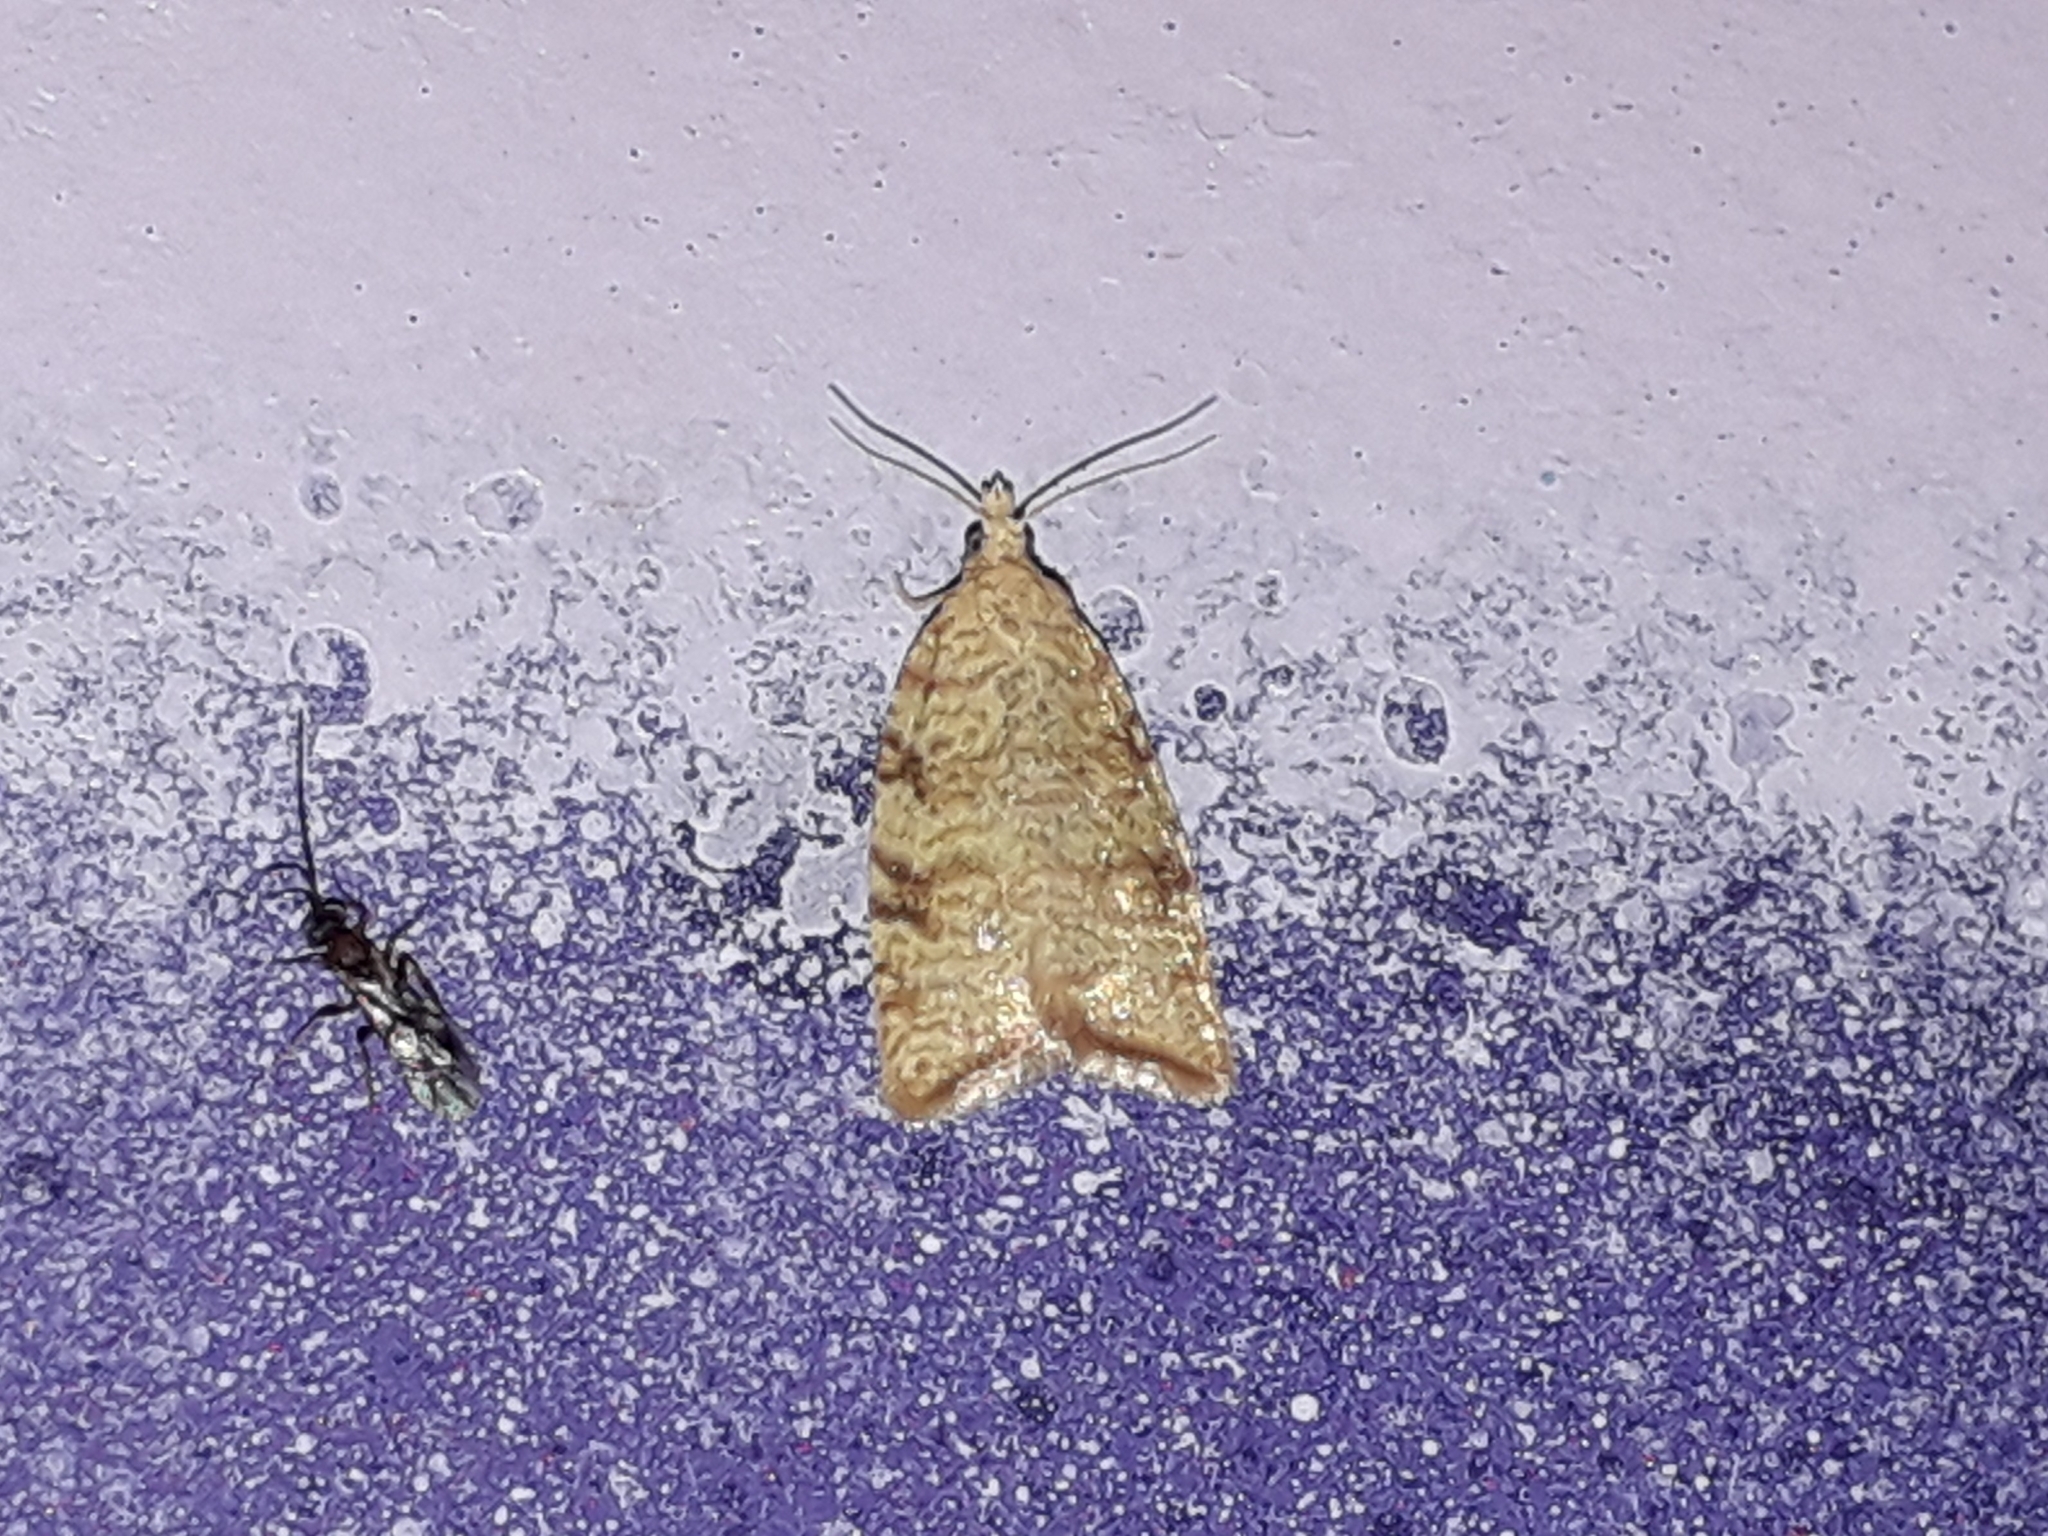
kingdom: Animalia
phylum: Arthropoda
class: Insecta
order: Lepidoptera
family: Tortricidae
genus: Aleimma
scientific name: Aleimma loeflingiana
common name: Yellow oak button
